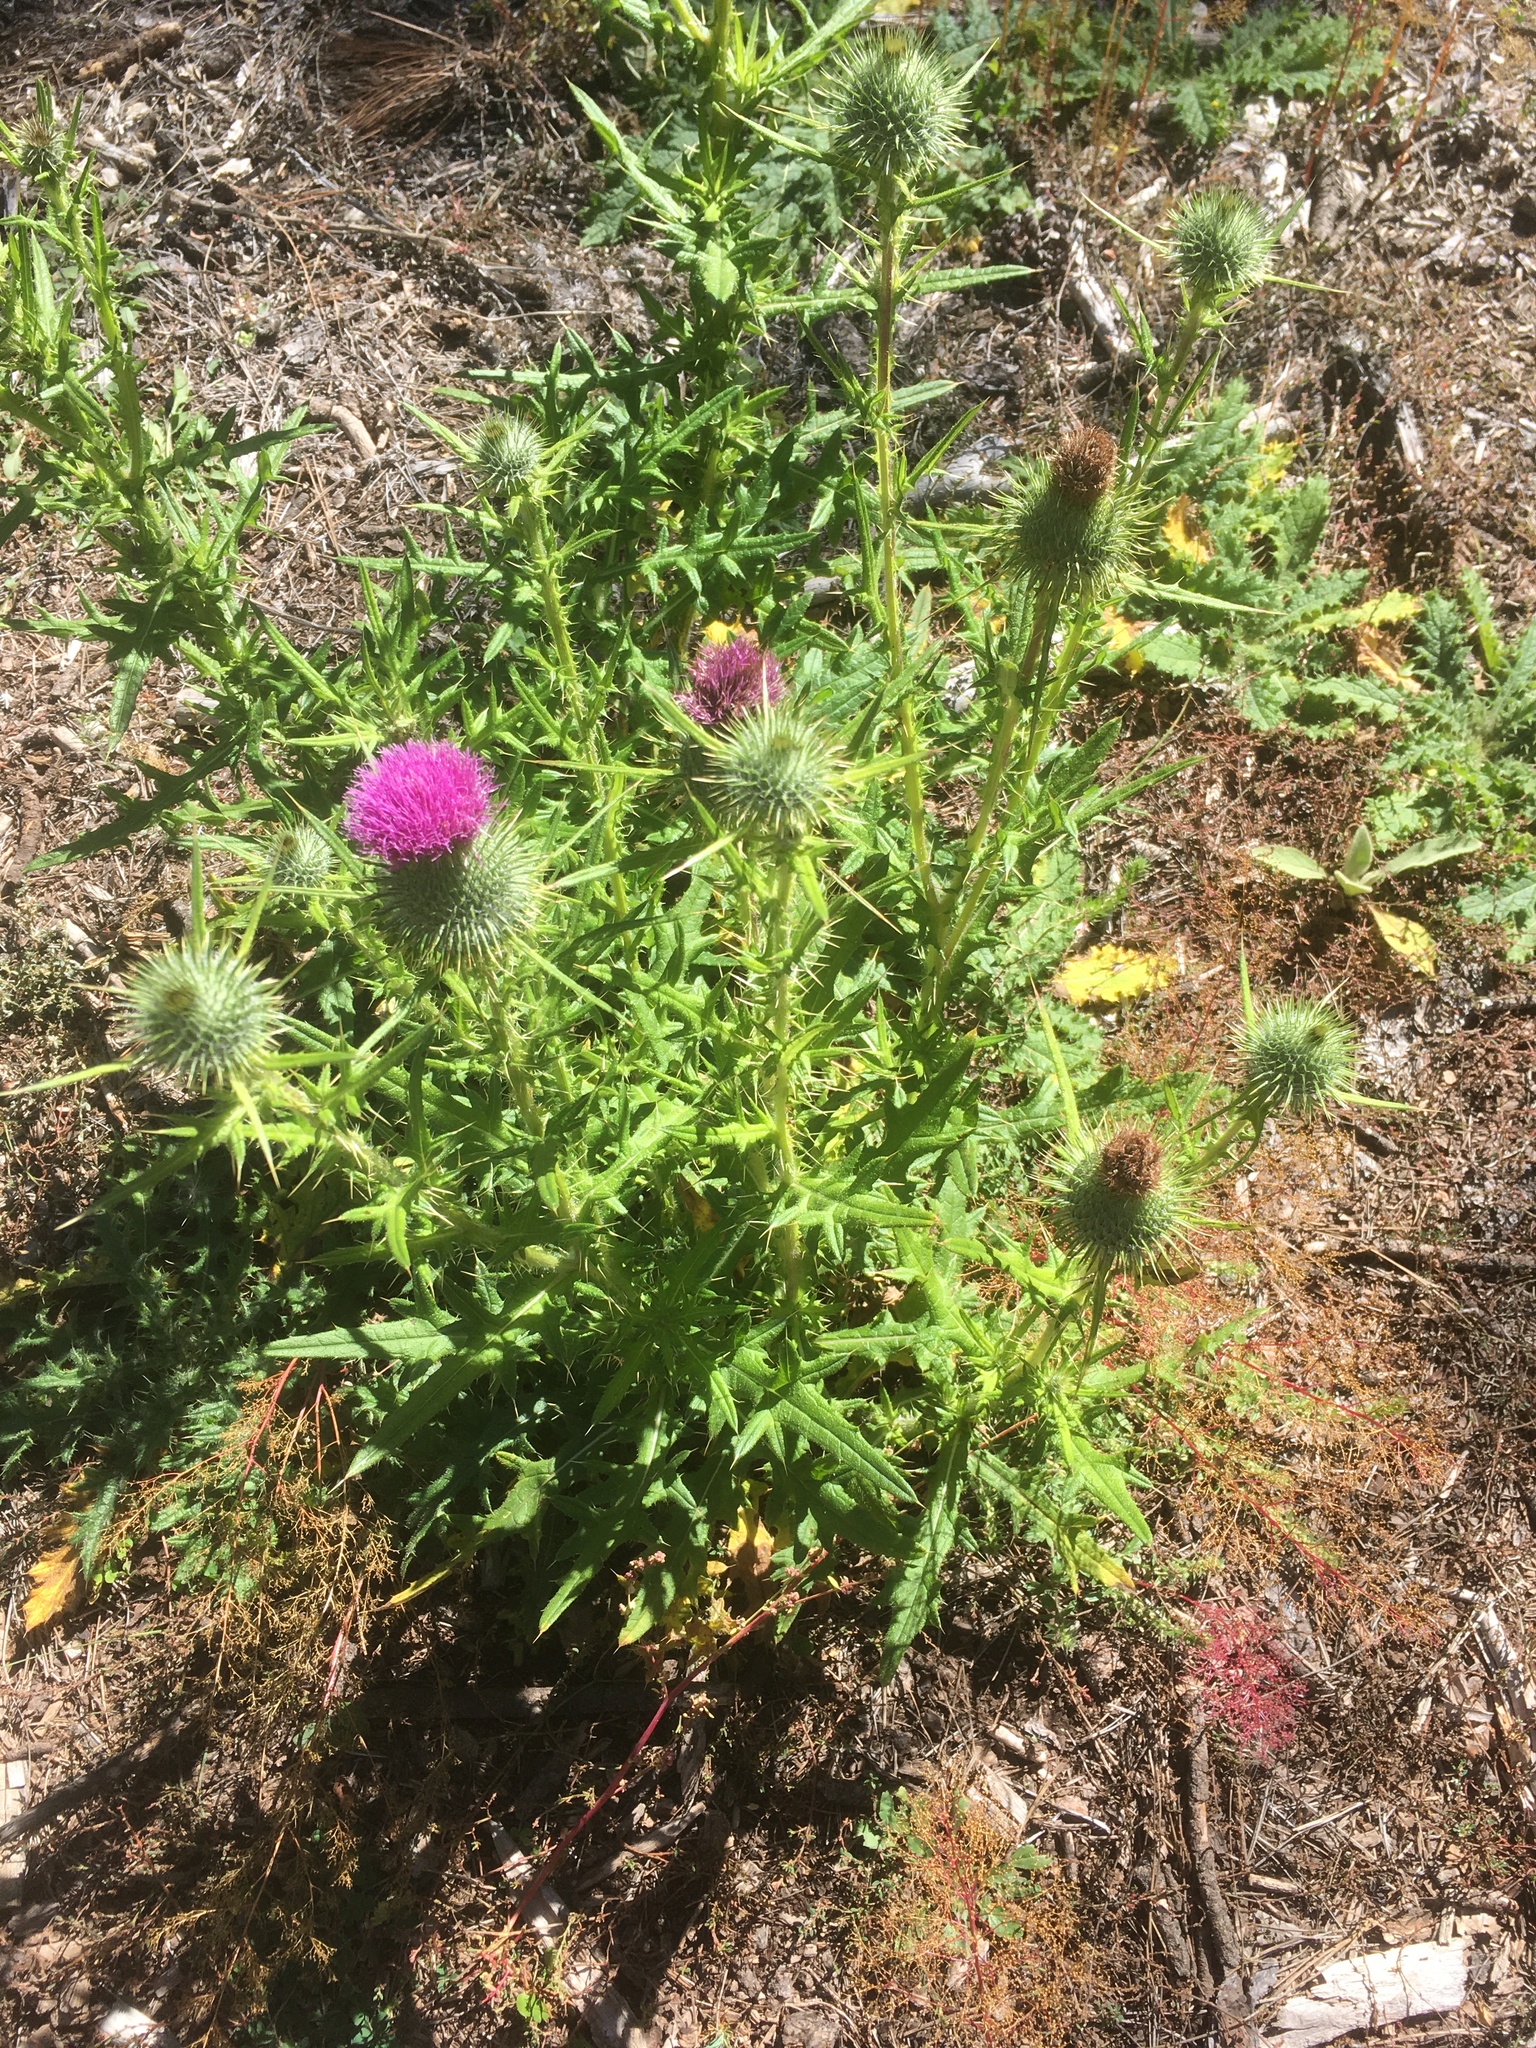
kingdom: Plantae
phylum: Tracheophyta
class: Magnoliopsida
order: Asterales
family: Asteraceae
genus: Cirsium
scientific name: Cirsium vulgare
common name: Bull thistle
